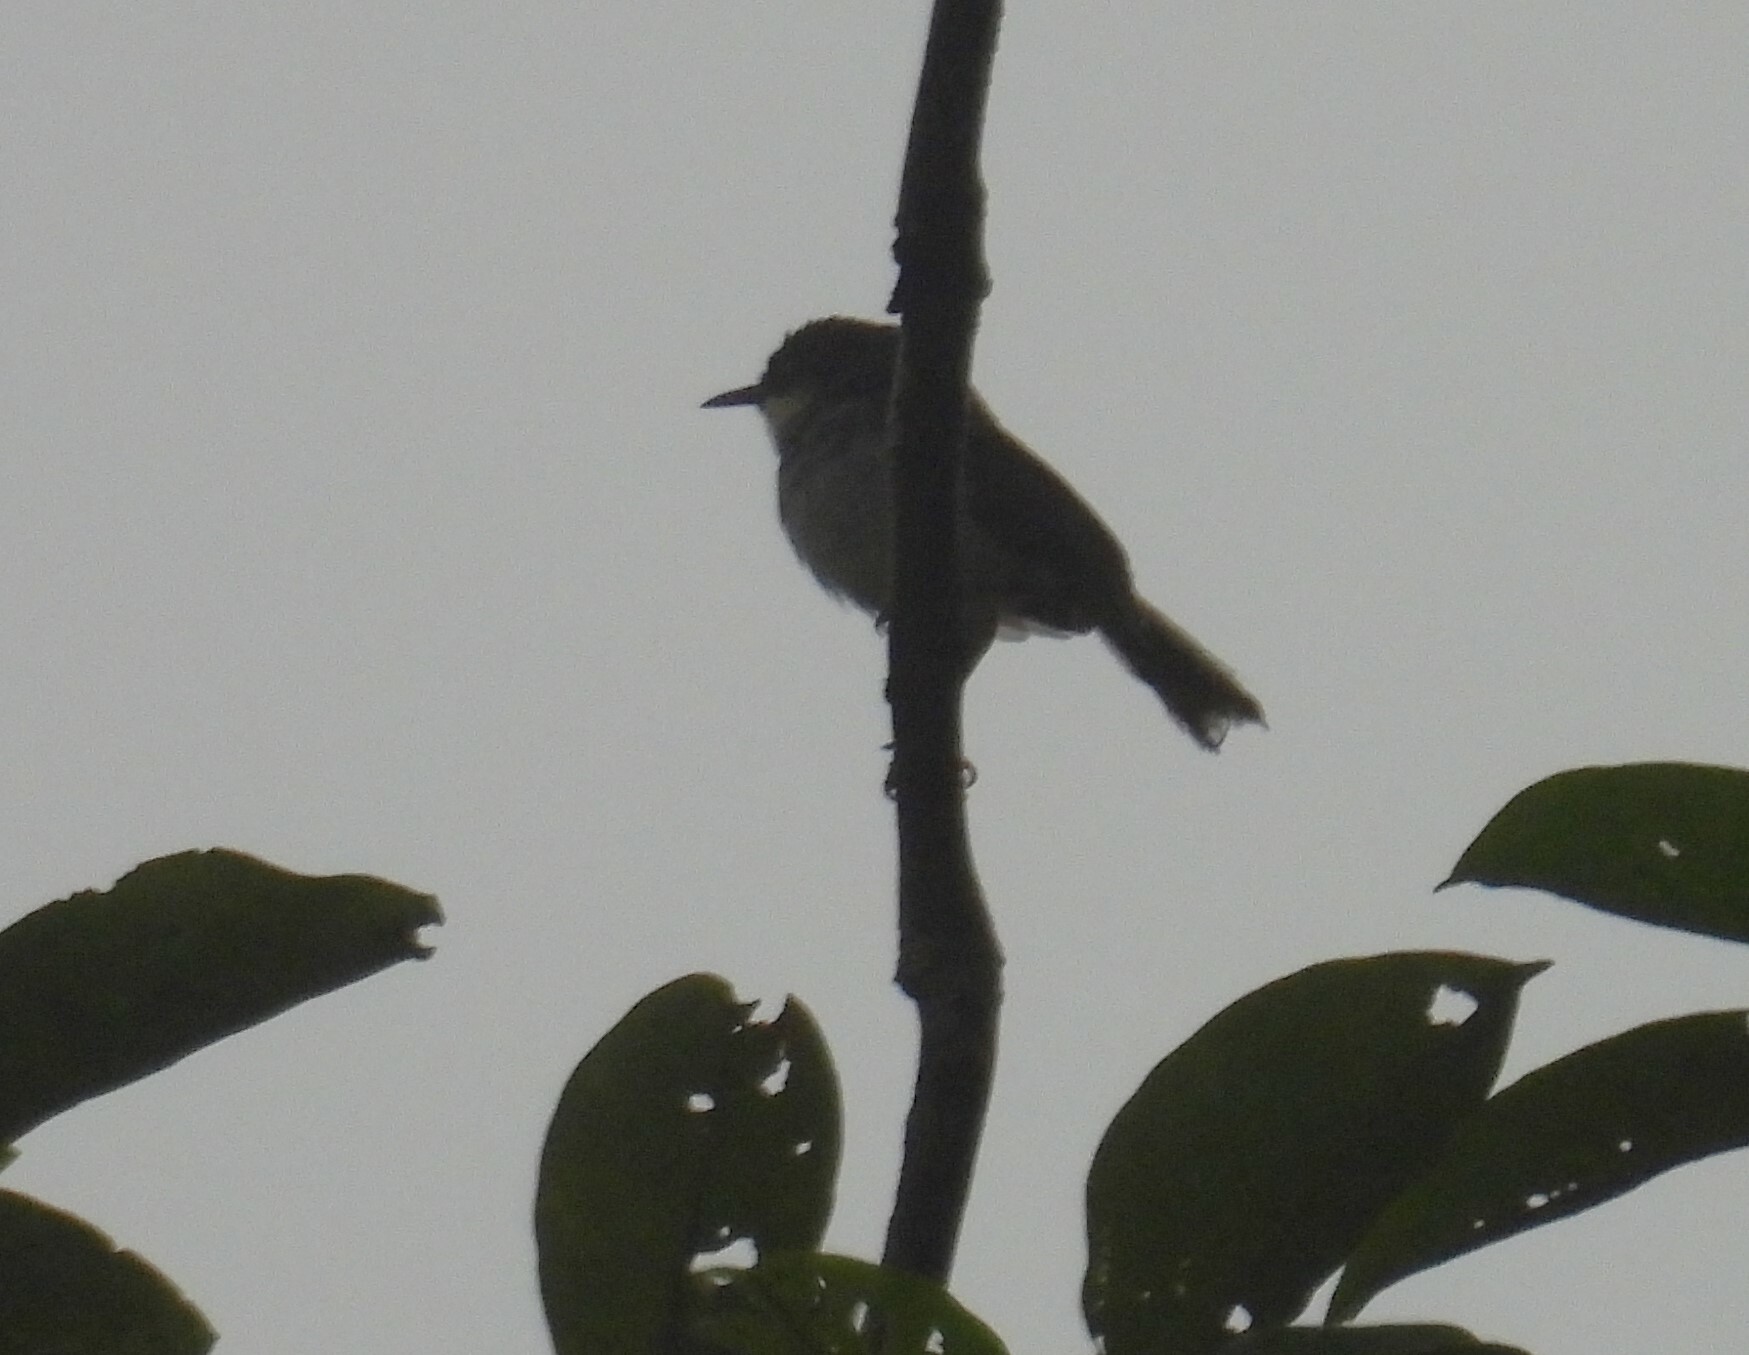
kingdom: Animalia
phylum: Chordata
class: Aves
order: Passeriformes
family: Cisticolidae
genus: Prinia
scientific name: Prinia hodgsonii
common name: Grey-breasted prinia
